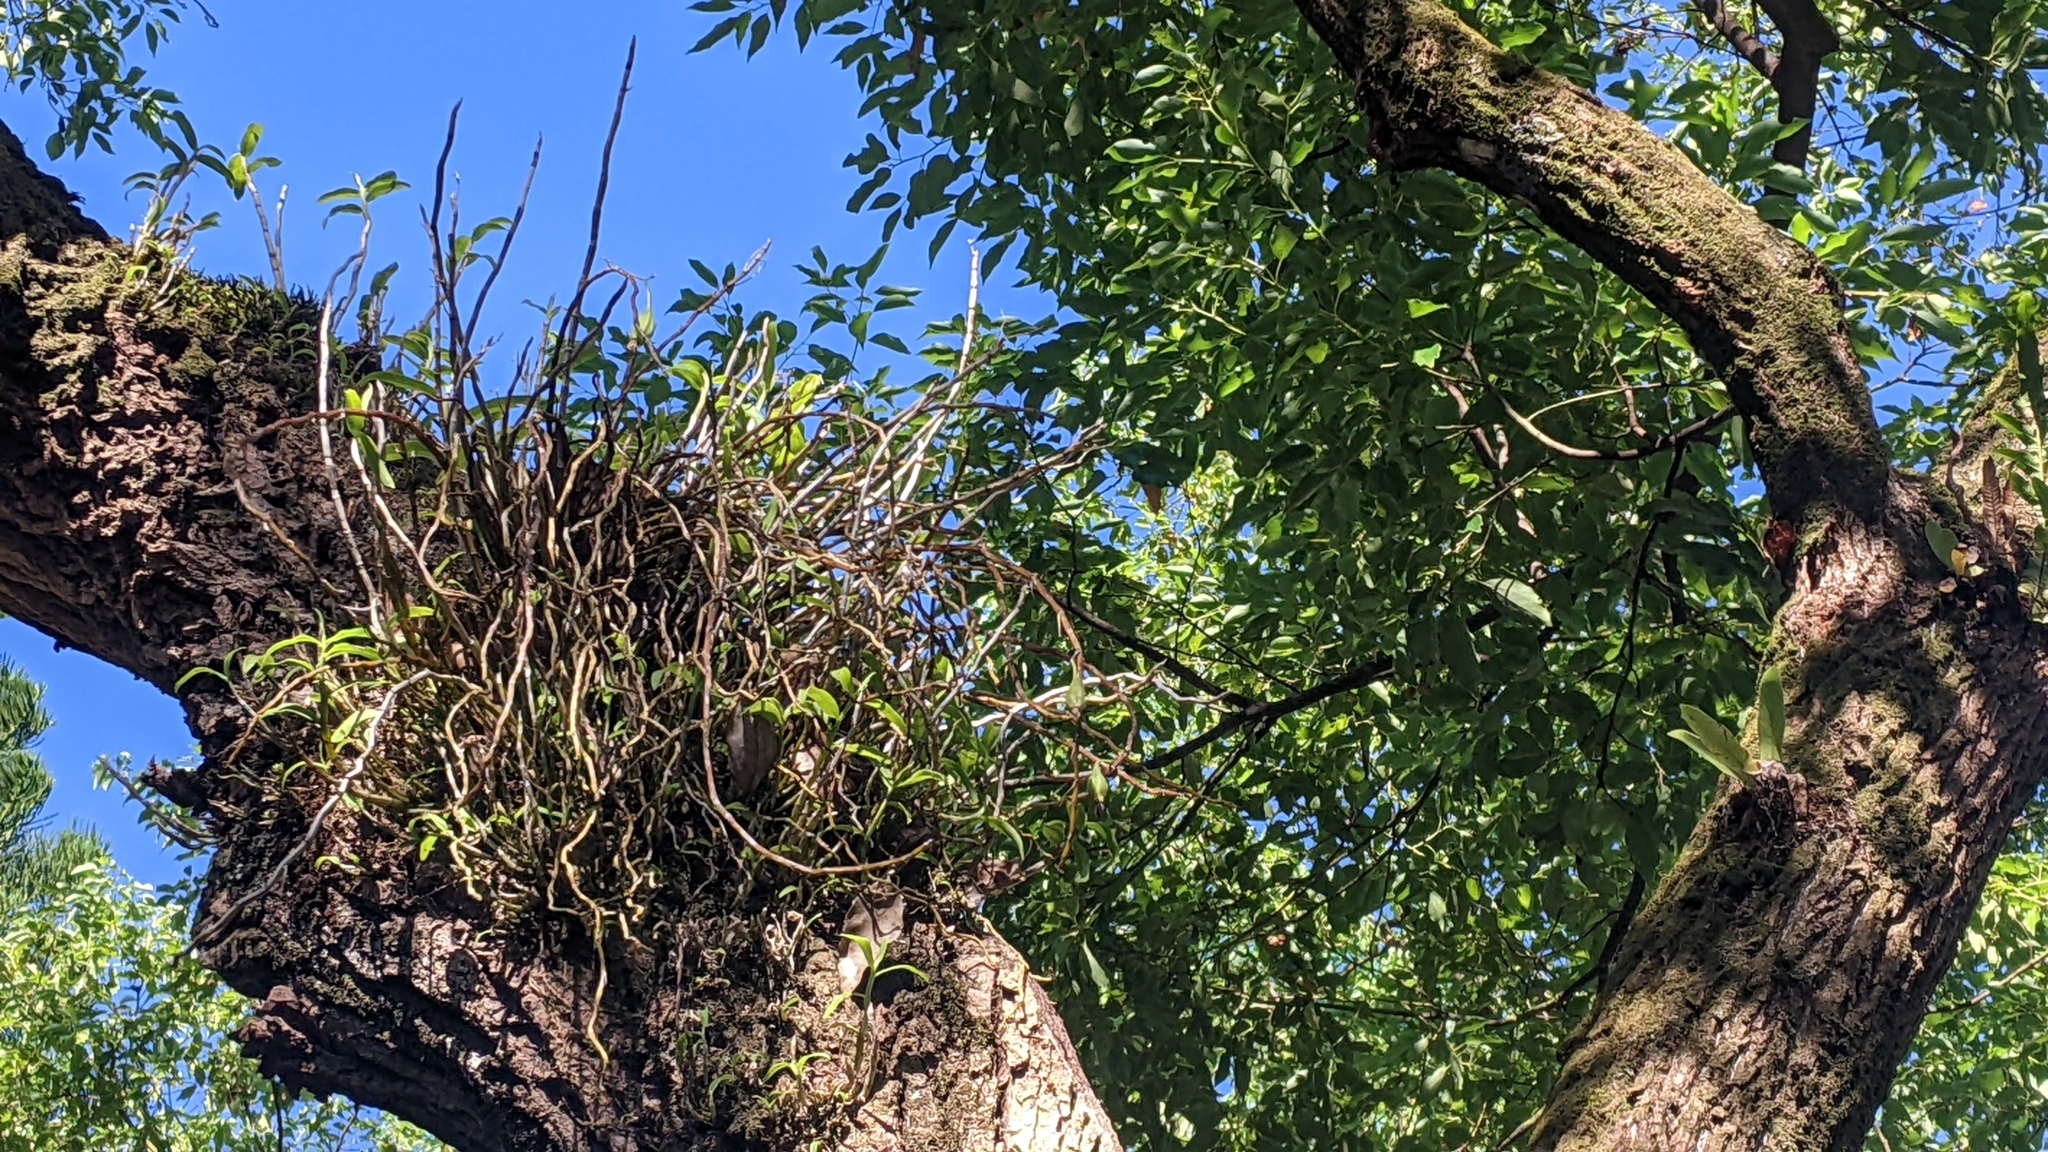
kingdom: Plantae
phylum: Tracheophyta
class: Liliopsida
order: Asparagales
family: Orchidaceae
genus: Dendrobium
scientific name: Dendrobium officinale
